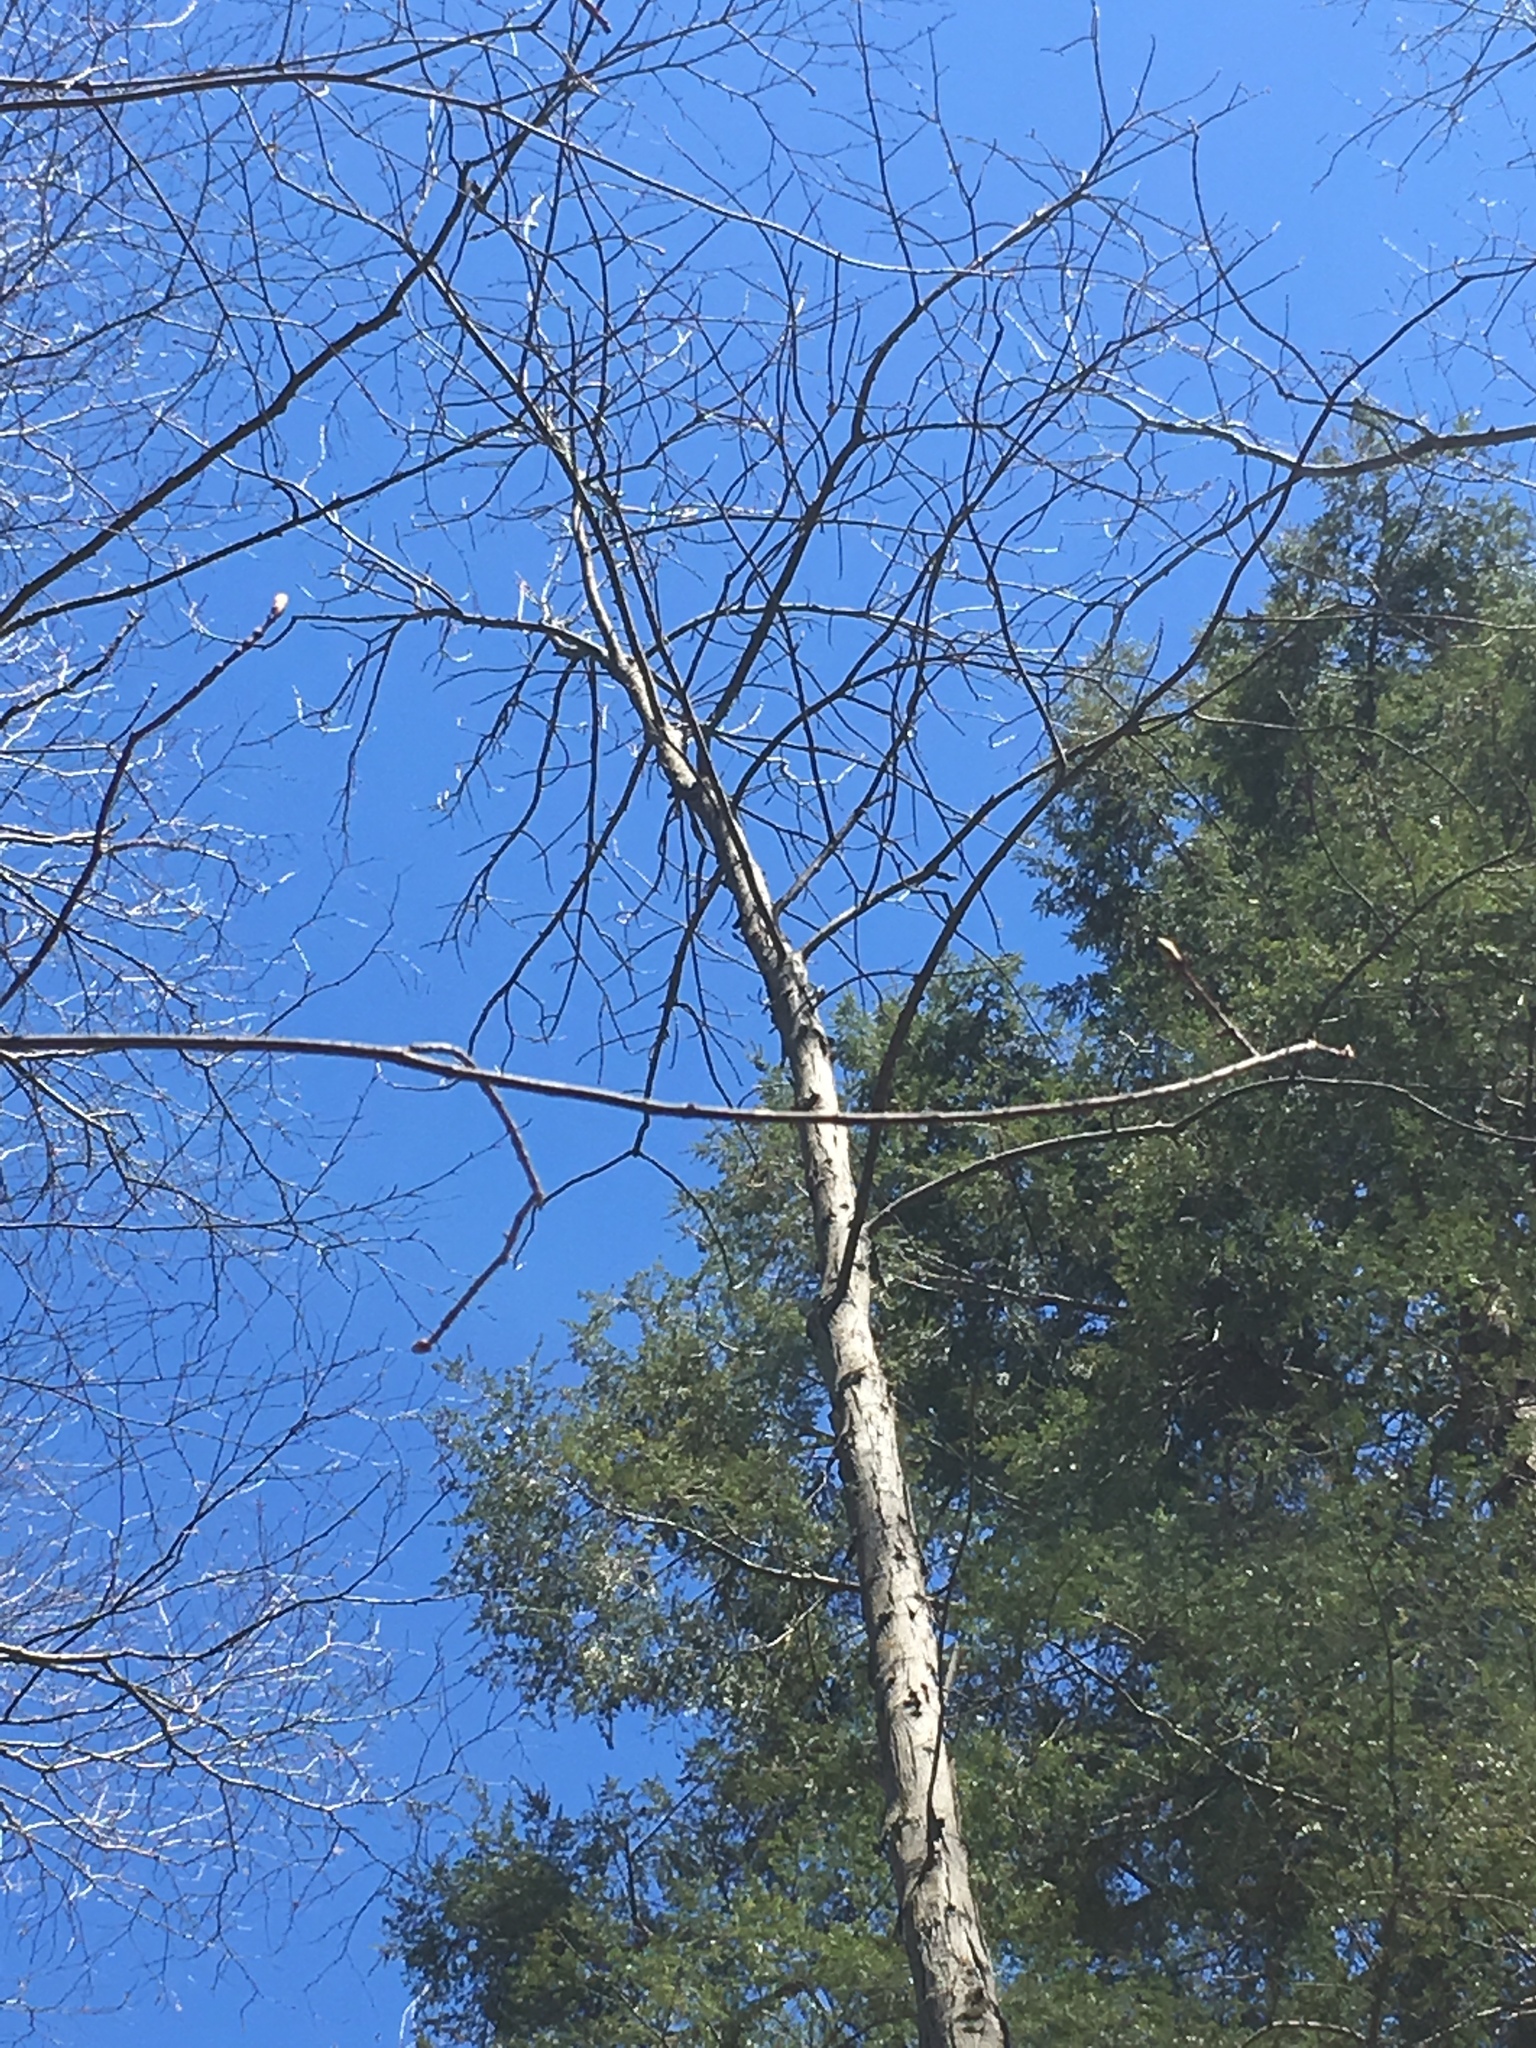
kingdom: Plantae
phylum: Tracheophyta
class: Magnoliopsida
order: Fagales
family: Juglandaceae
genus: Carya
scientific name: Carya ovata
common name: Shagbark hickory
